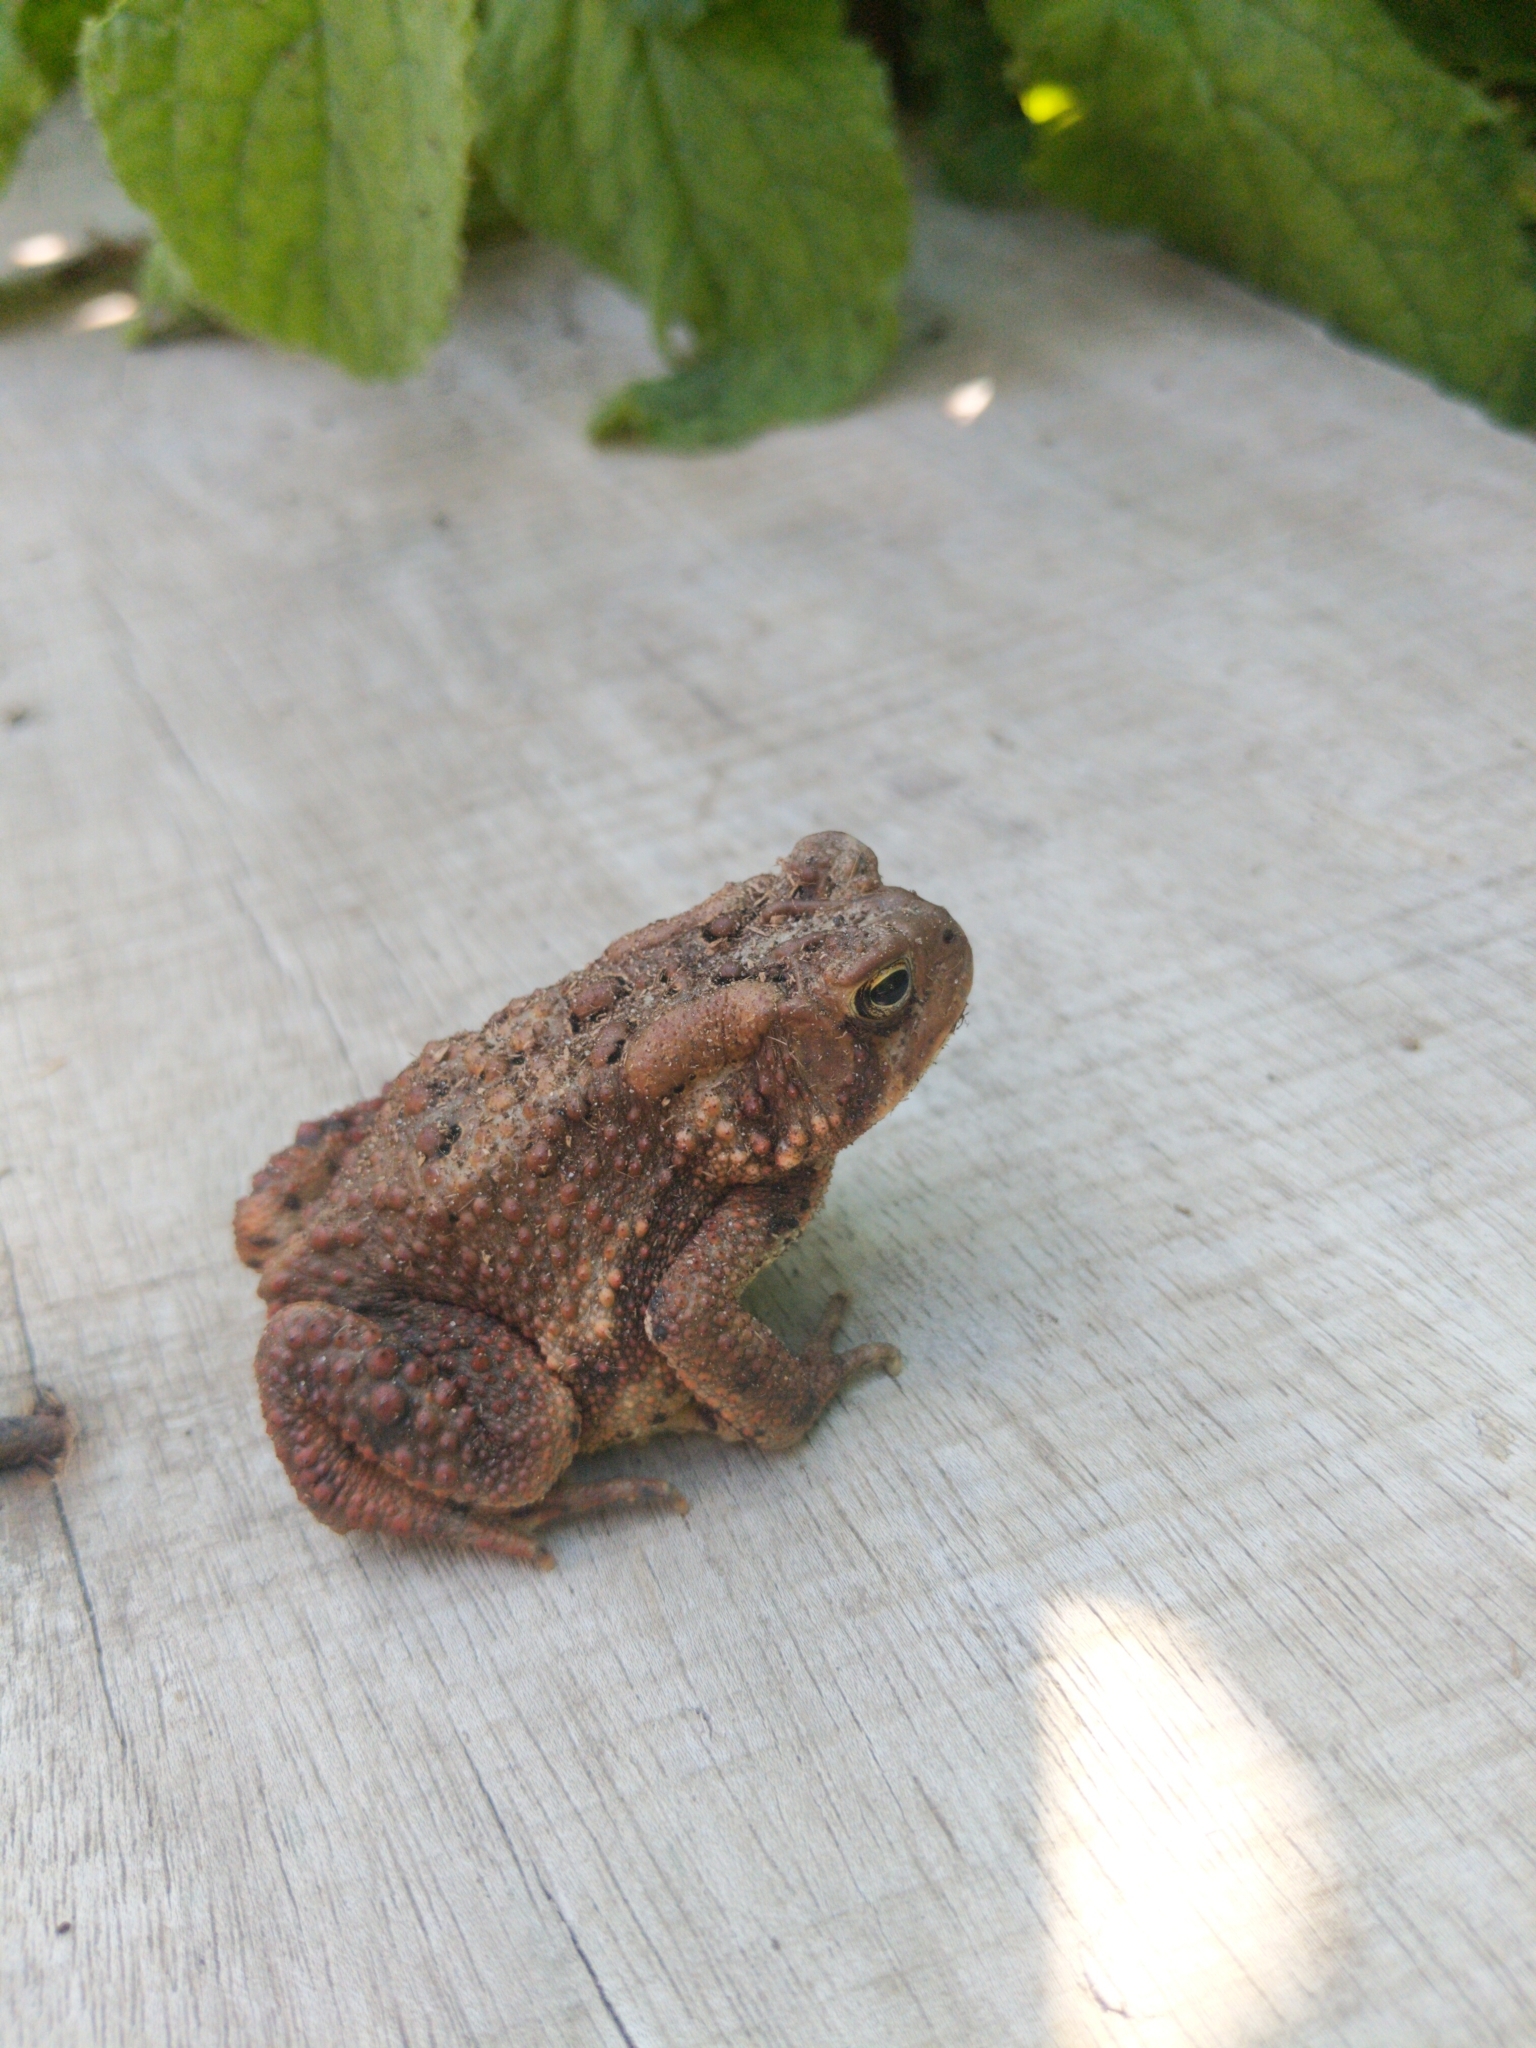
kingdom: Animalia
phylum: Chordata
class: Amphibia
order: Anura
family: Bufonidae
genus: Anaxyrus
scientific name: Anaxyrus americanus
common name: American toad
